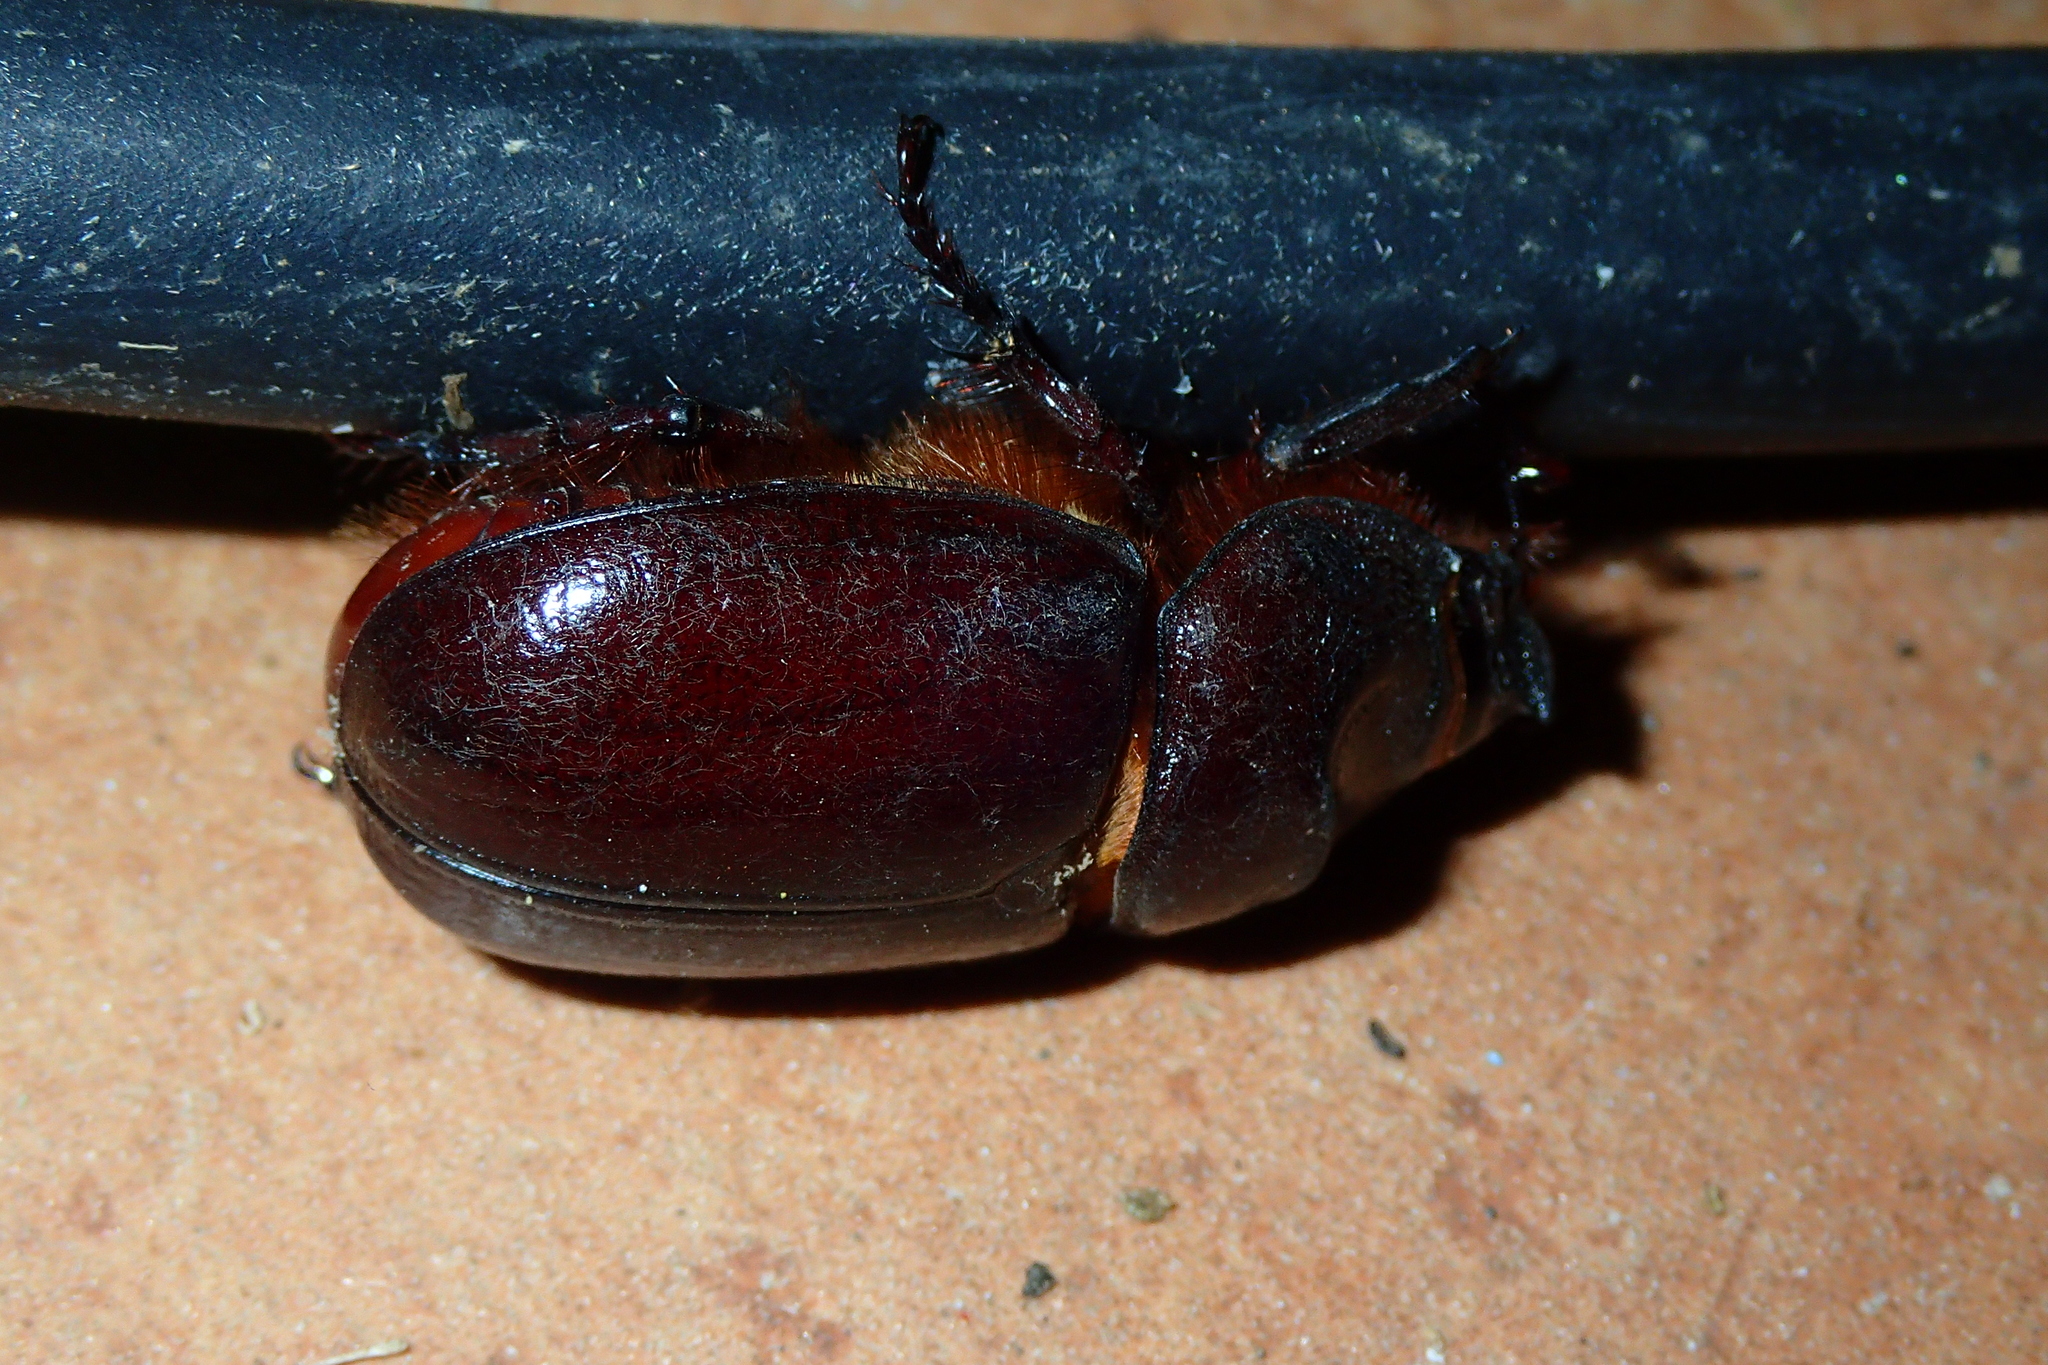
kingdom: Animalia
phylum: Arthropoda
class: Insecta
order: Coleoptera
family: Scarabaeidae
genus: Oryctes
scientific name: Oryctes nasicornis
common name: European rhinoceros beetle
